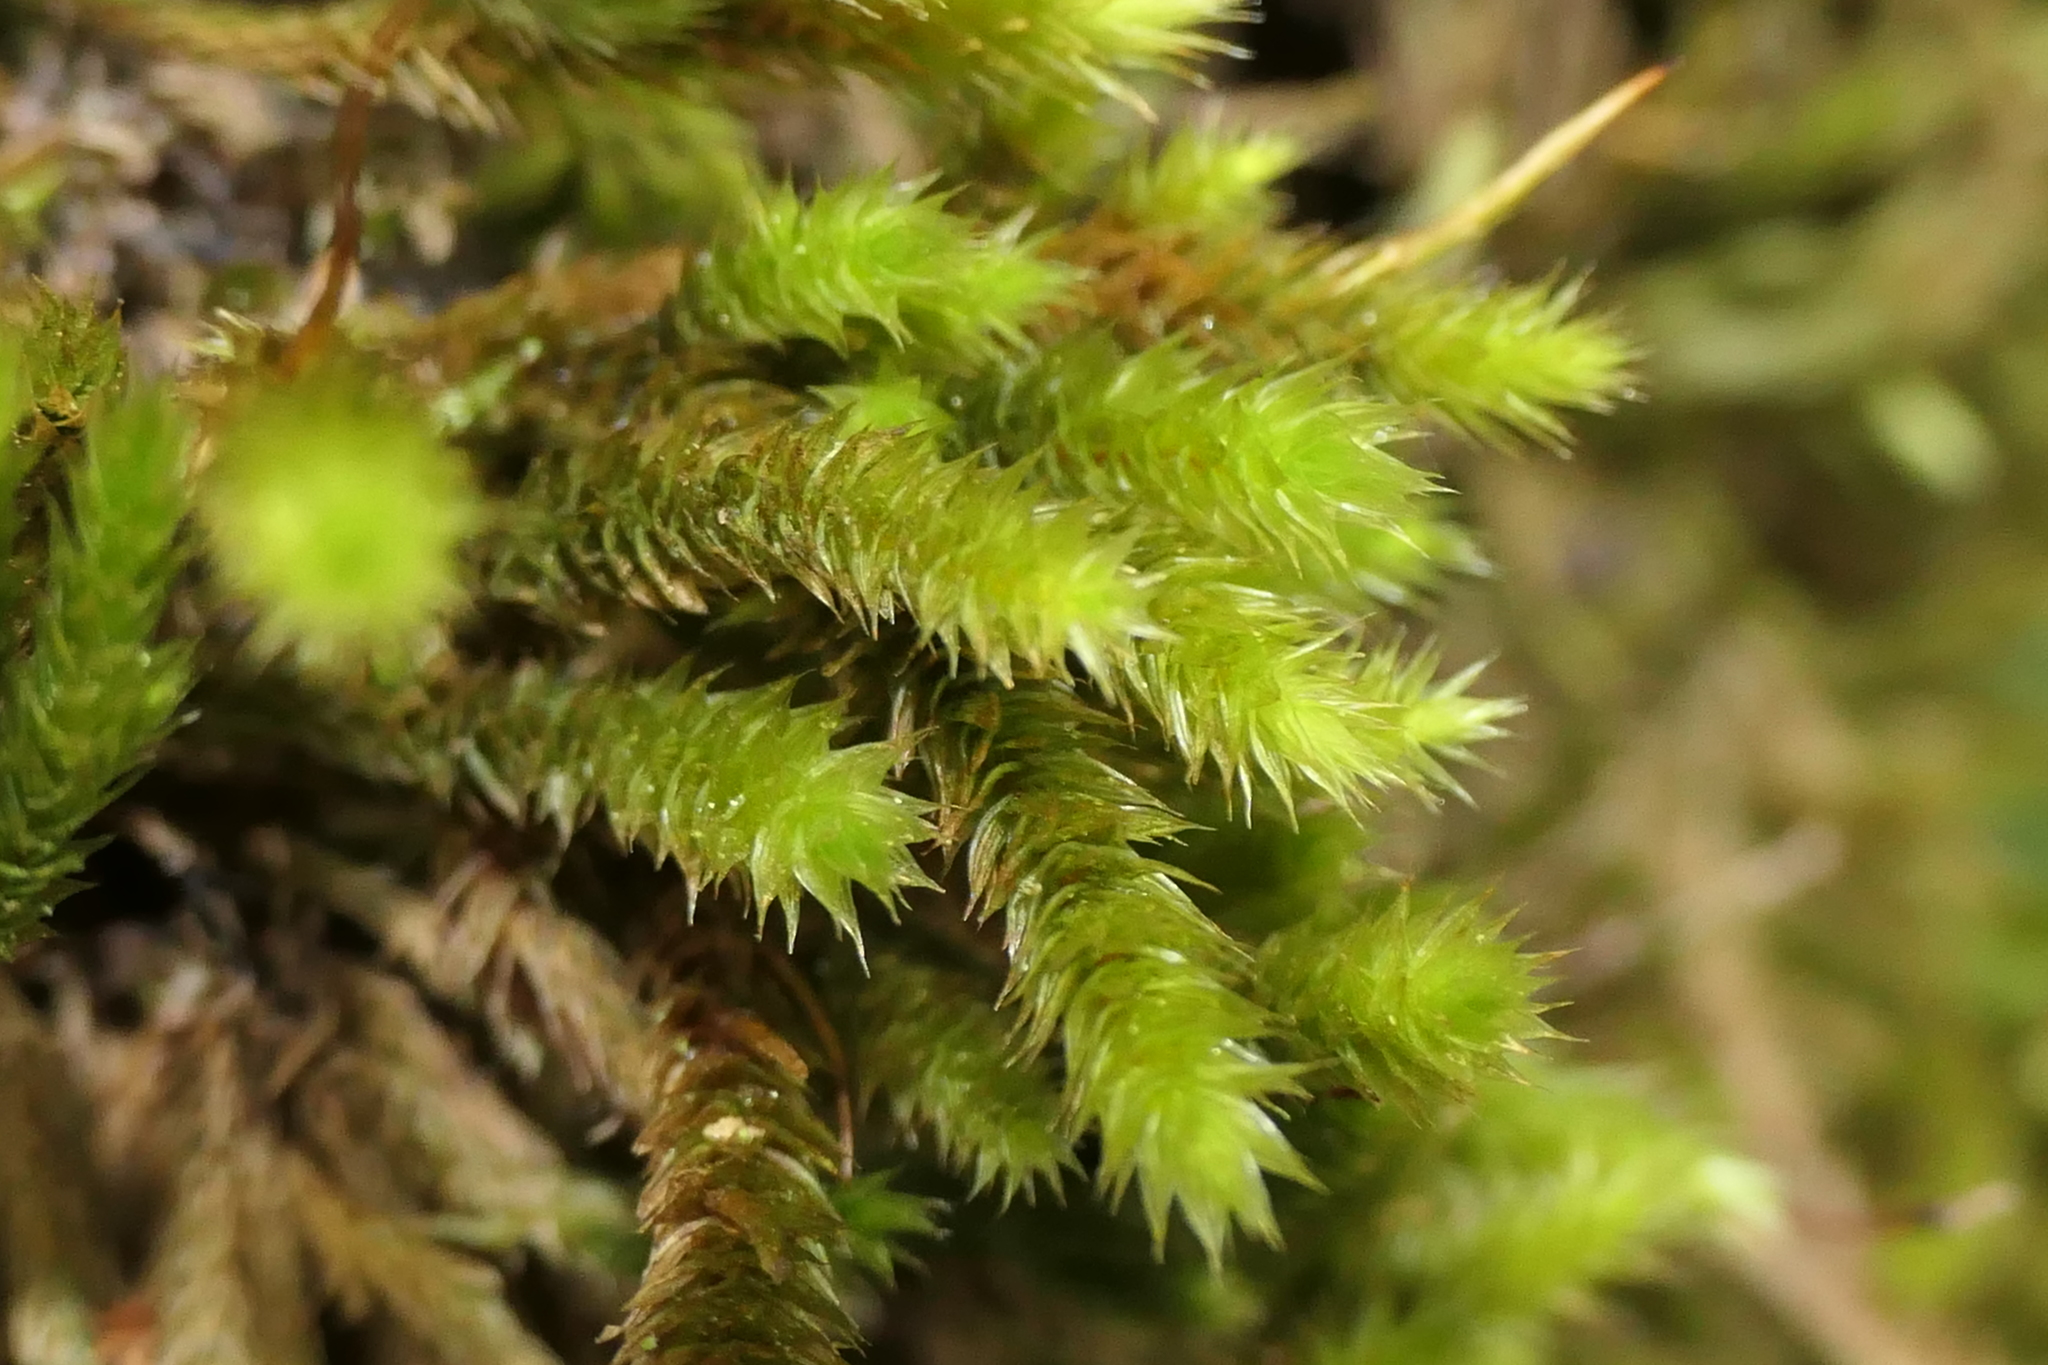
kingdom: Plantae
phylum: Bryophyta
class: Bryopsida
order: Hypnales
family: Leucodontaceae
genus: Leucodon
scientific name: Leucodon sciuroides
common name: Squirrel-tail moss
